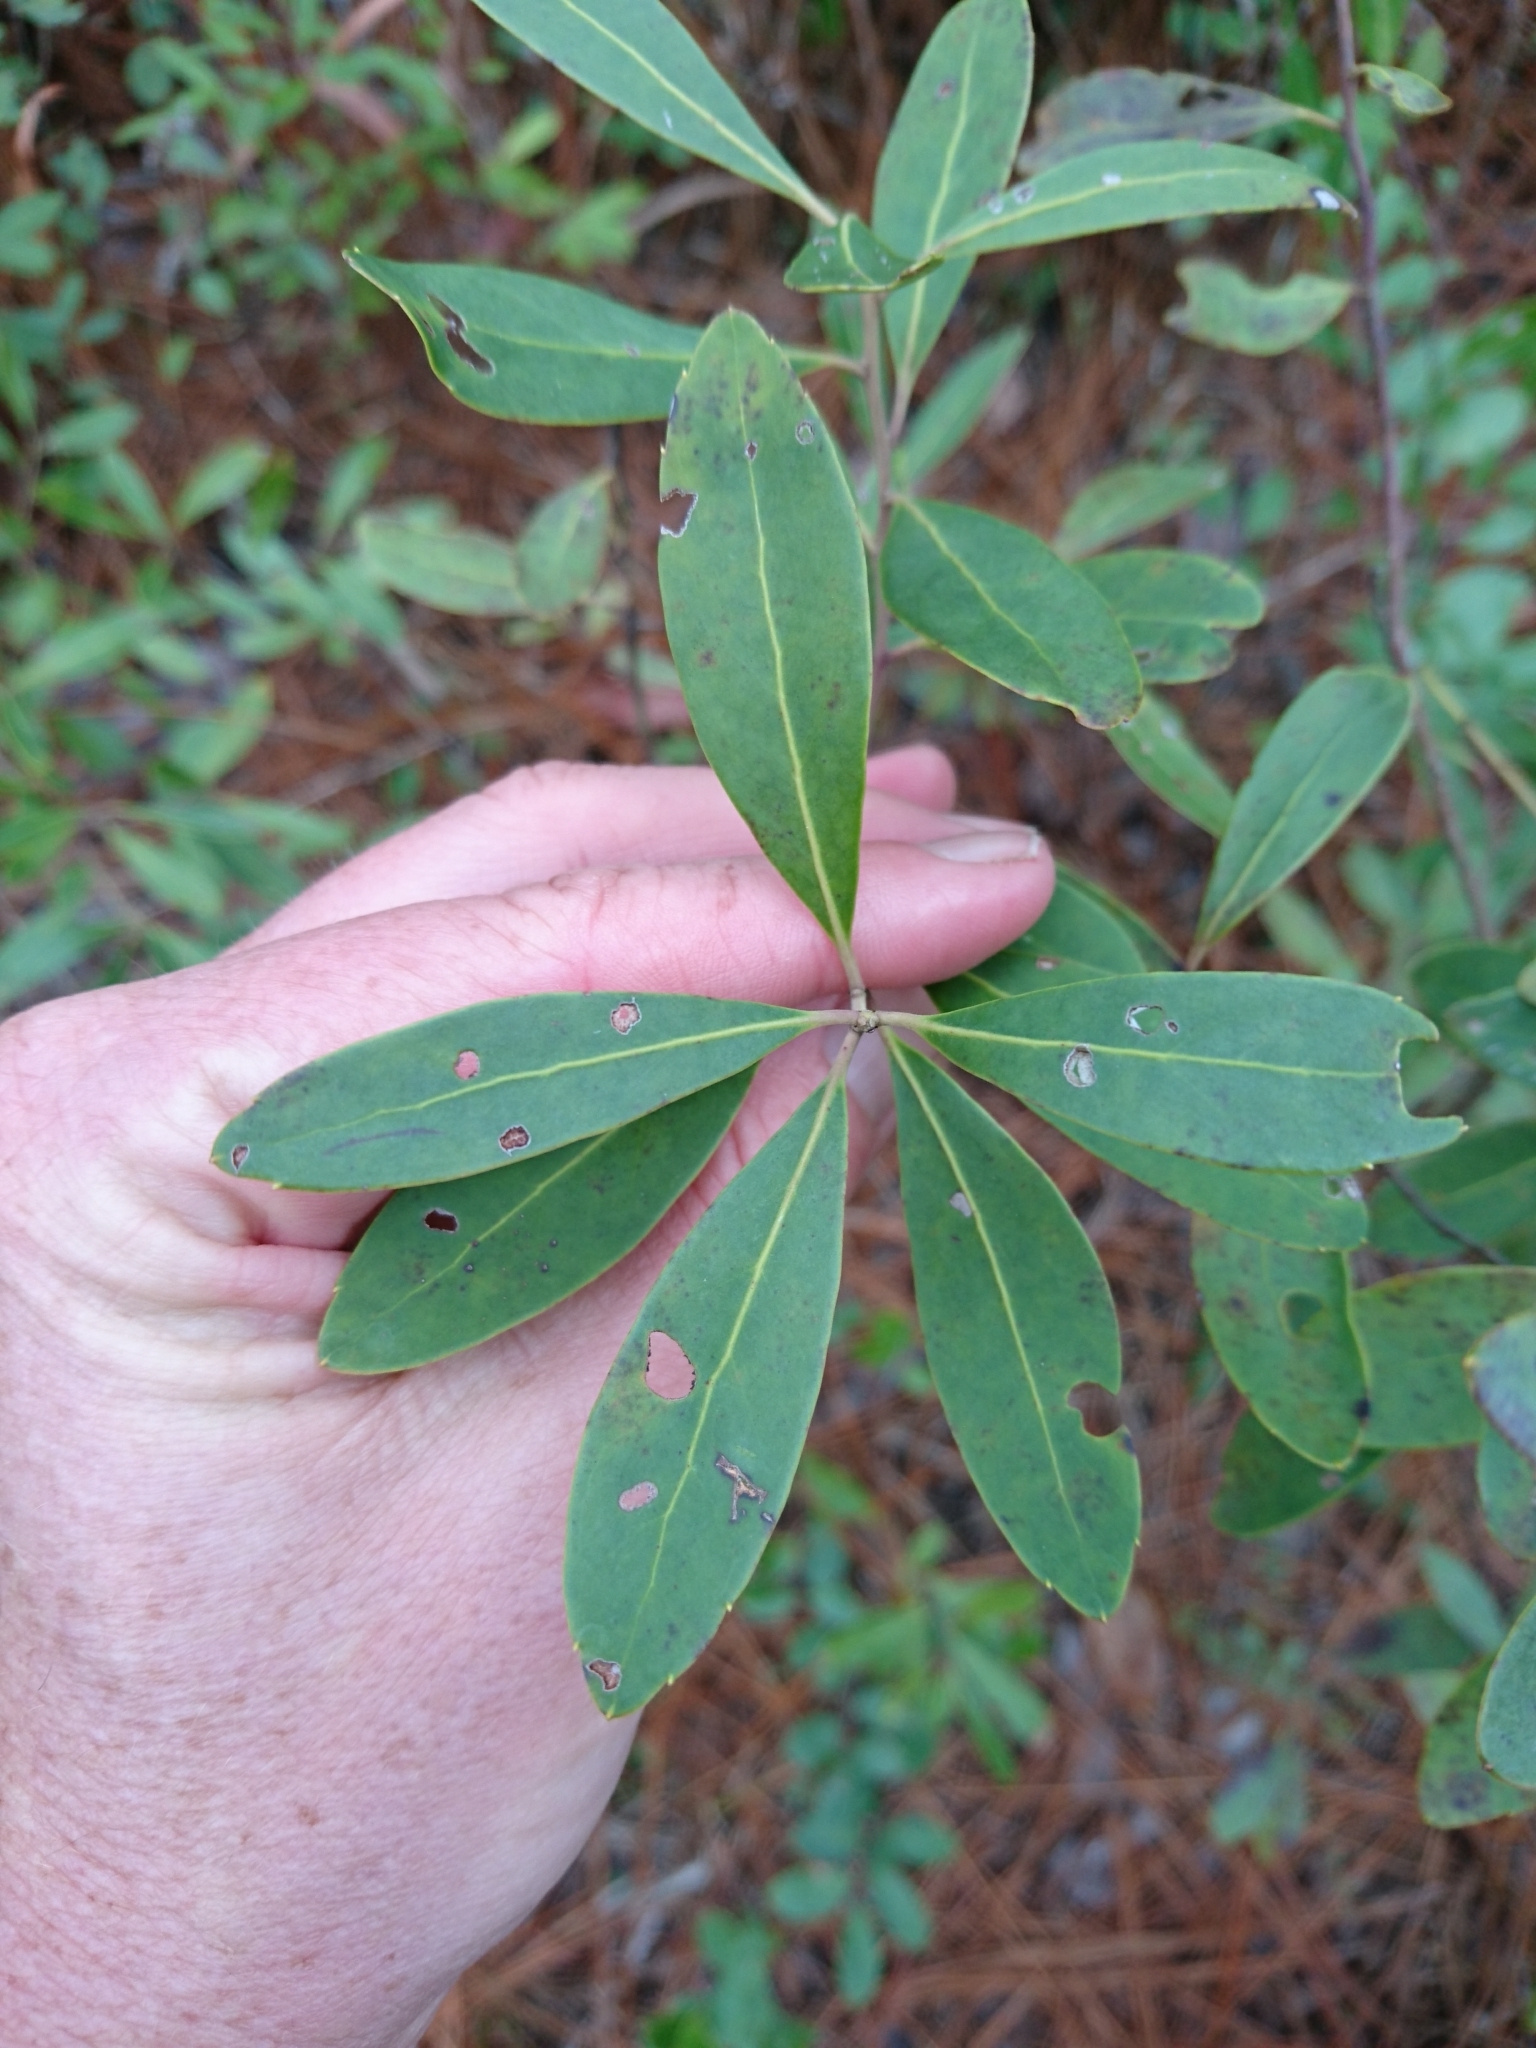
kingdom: Plantae
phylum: Tracheophyta
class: Magnoliopsida
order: Aquifoliales
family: Aquifoliaceae
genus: Ilex
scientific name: Ilex glabra
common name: Bitter gallberry
